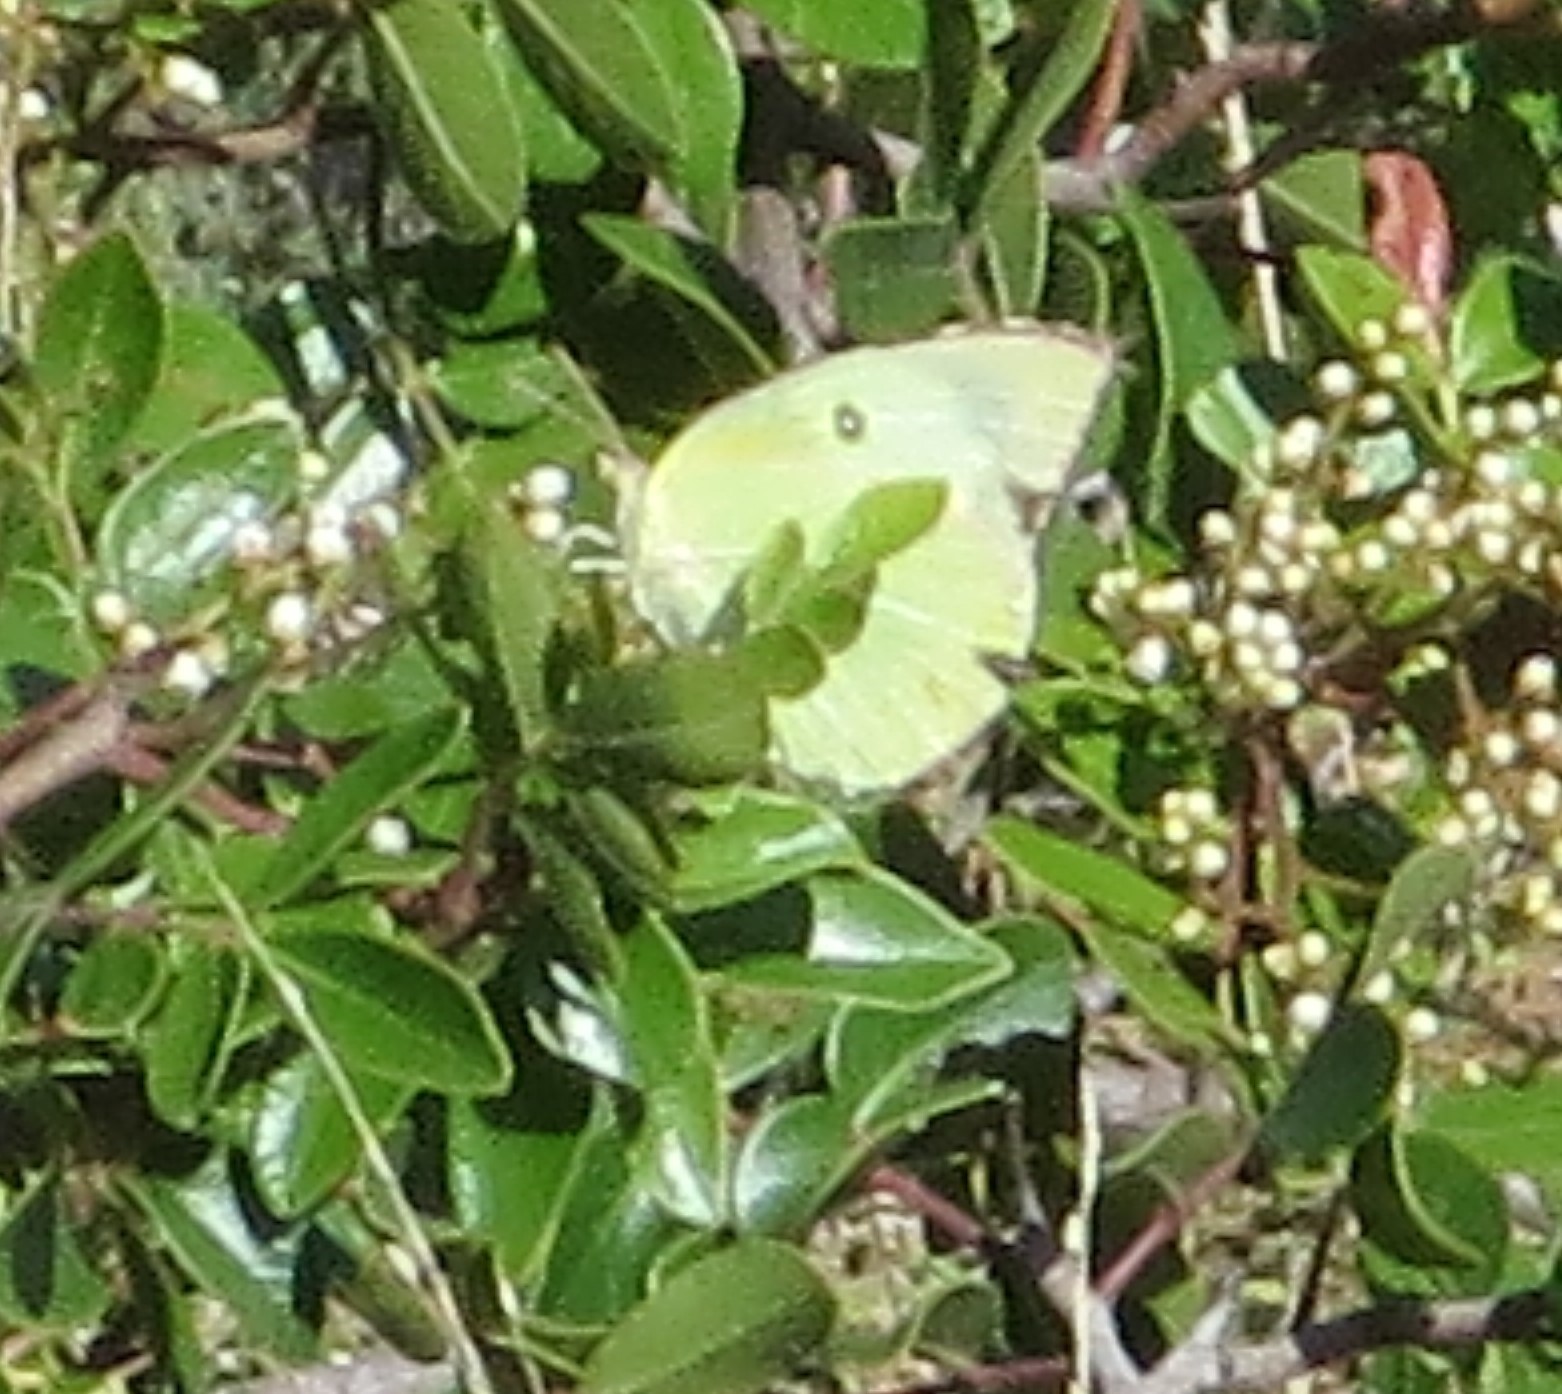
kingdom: Animalia
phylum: Arthropoda
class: Insecta
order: Lepidoptera
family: Pieridae
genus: Zerene
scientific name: Zerene cesonia
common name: Southern dogface
